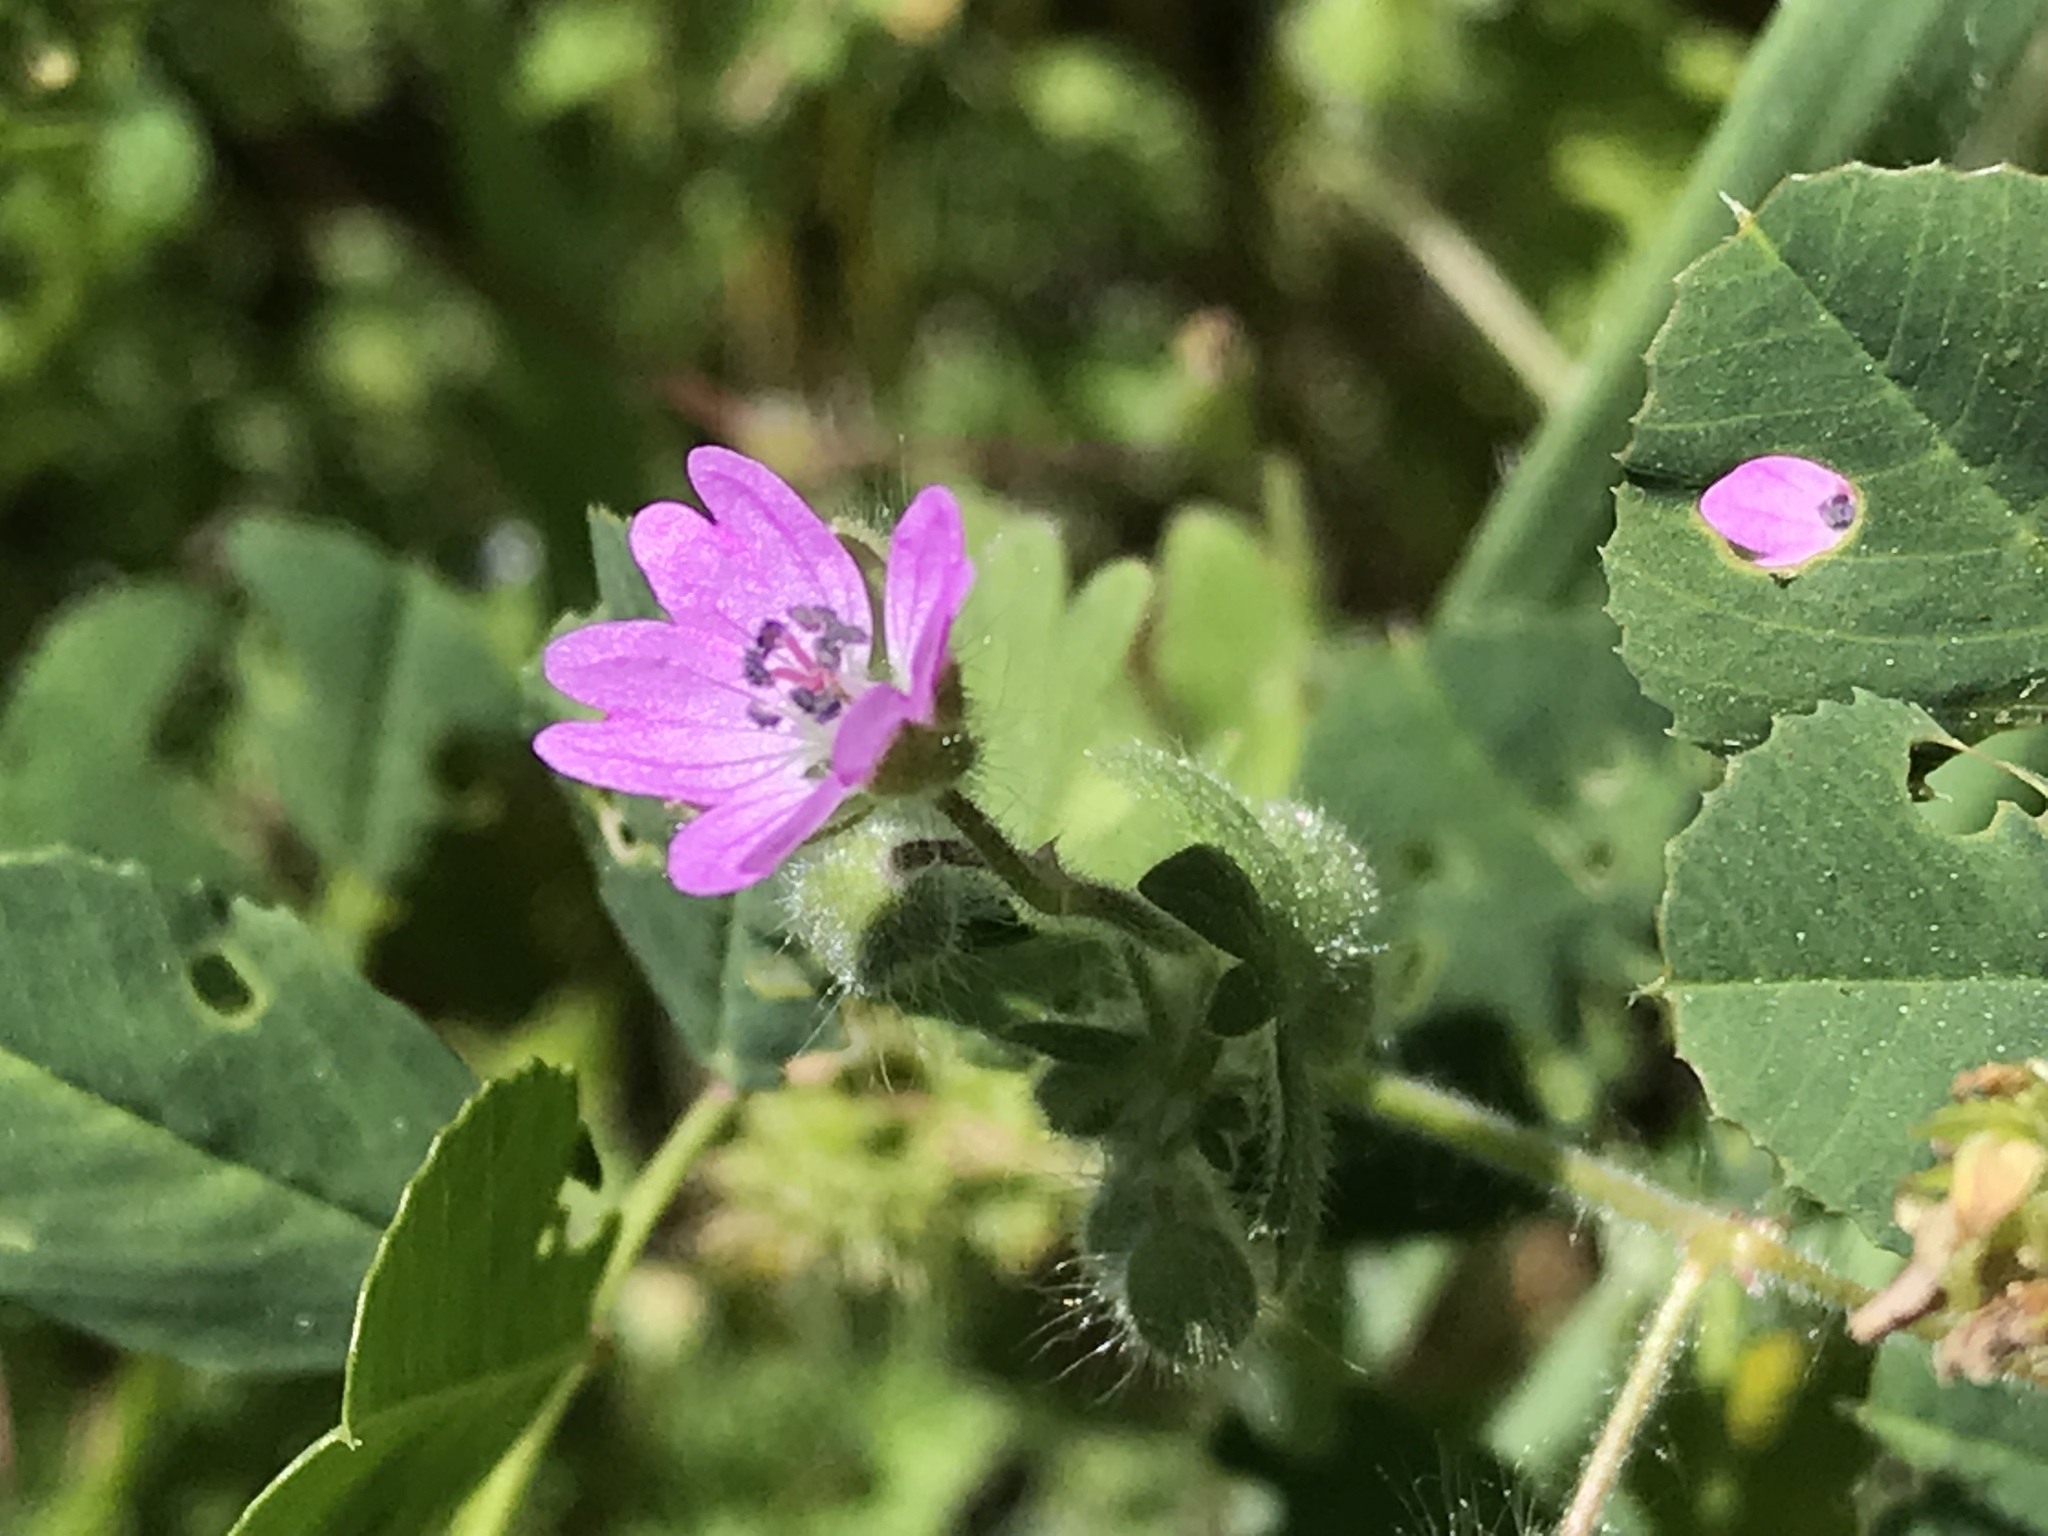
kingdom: Plantae
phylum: Tracheophyta
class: Magnoliopsida
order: Geraniales
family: Geraniaceae
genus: Geranium
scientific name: Geranium molle
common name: Dove's-foot crane's-bill
